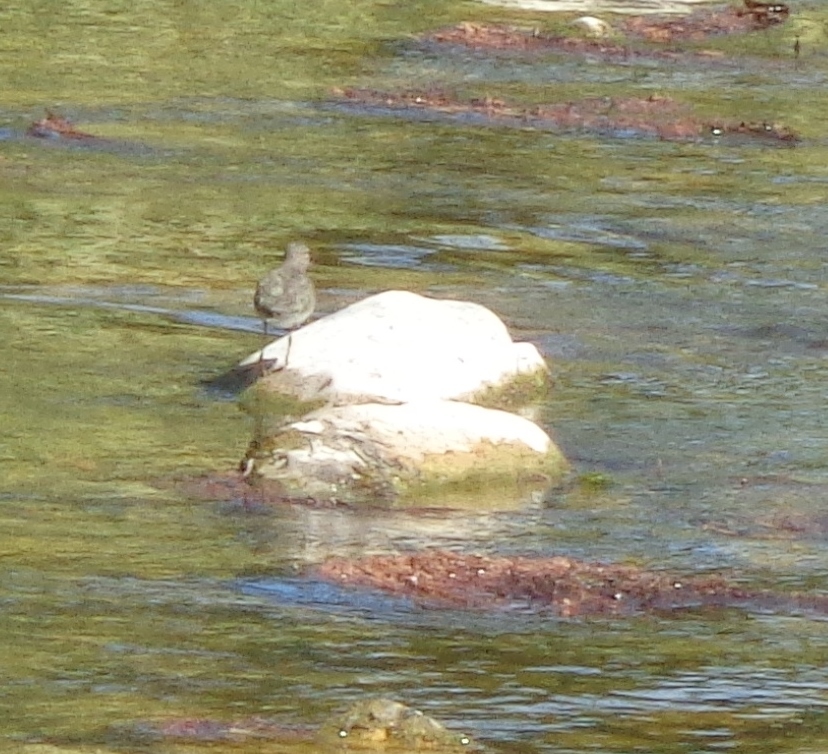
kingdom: Animalia
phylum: Chordata
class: Aves
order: Charadriiformes
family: Scolopacidae
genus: Actitis
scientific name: Actitis macularius
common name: Spotted sandpiper
